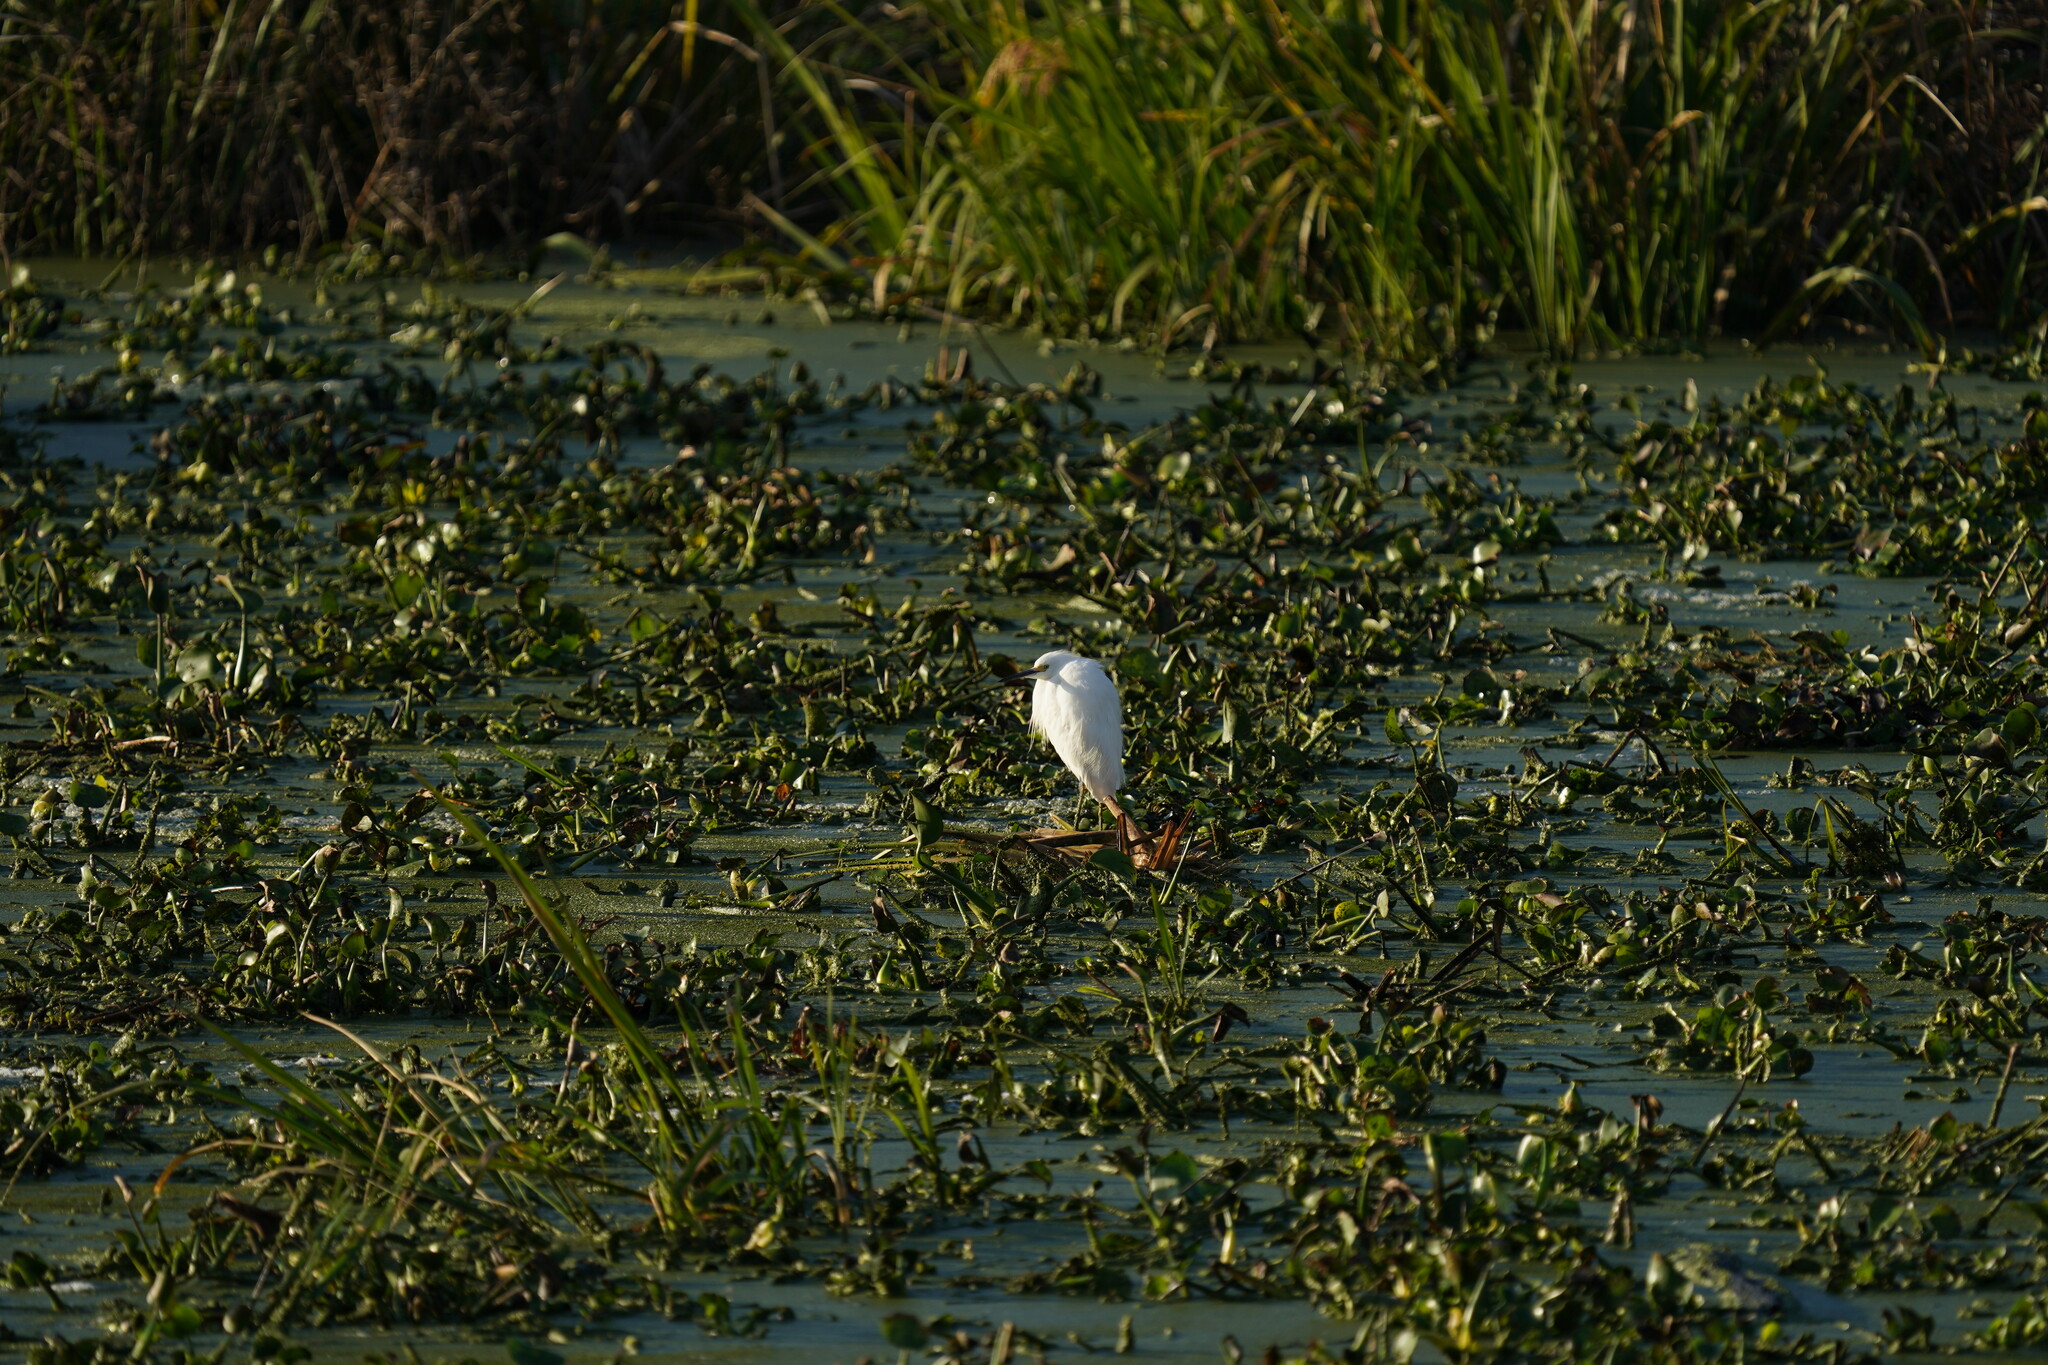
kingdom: Animalia
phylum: Chordata
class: Aves
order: Pelecaniformes
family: Ardeidae
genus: Egretta
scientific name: Egretta thula
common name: Snowy egret
